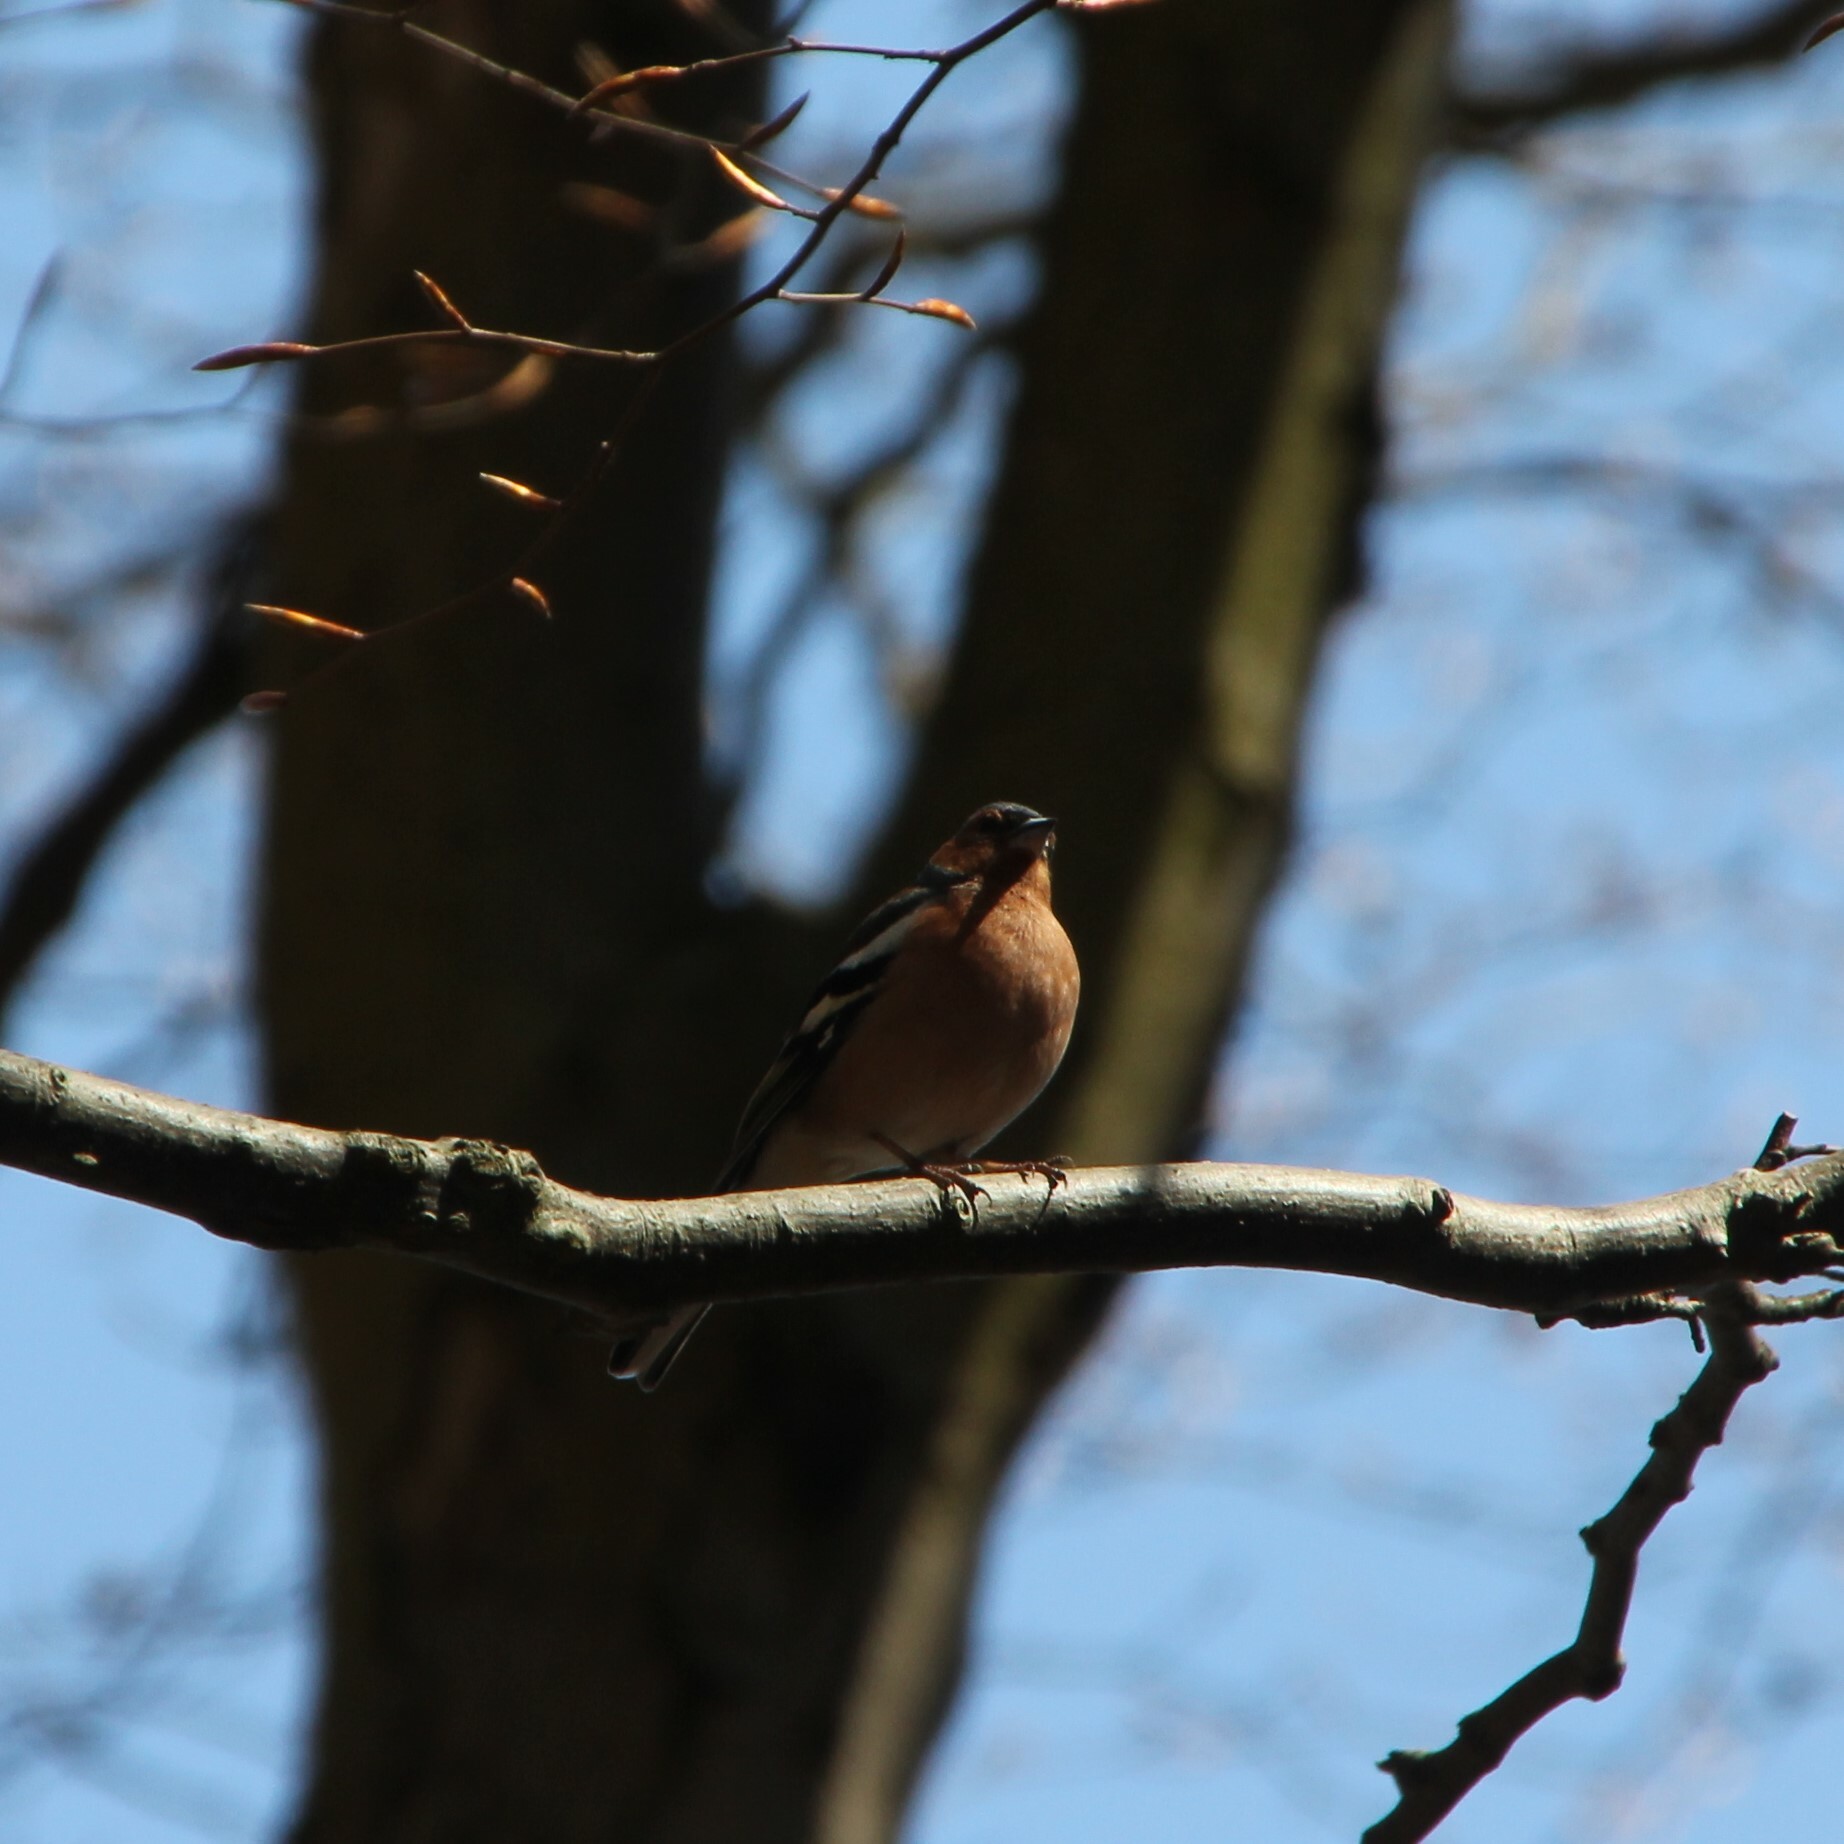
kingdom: Animalia
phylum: Chordata
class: Aves
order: Passeriformes
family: Fringillidae
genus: Fringilla
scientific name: Fringilla coelebs
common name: Common chaffinch
